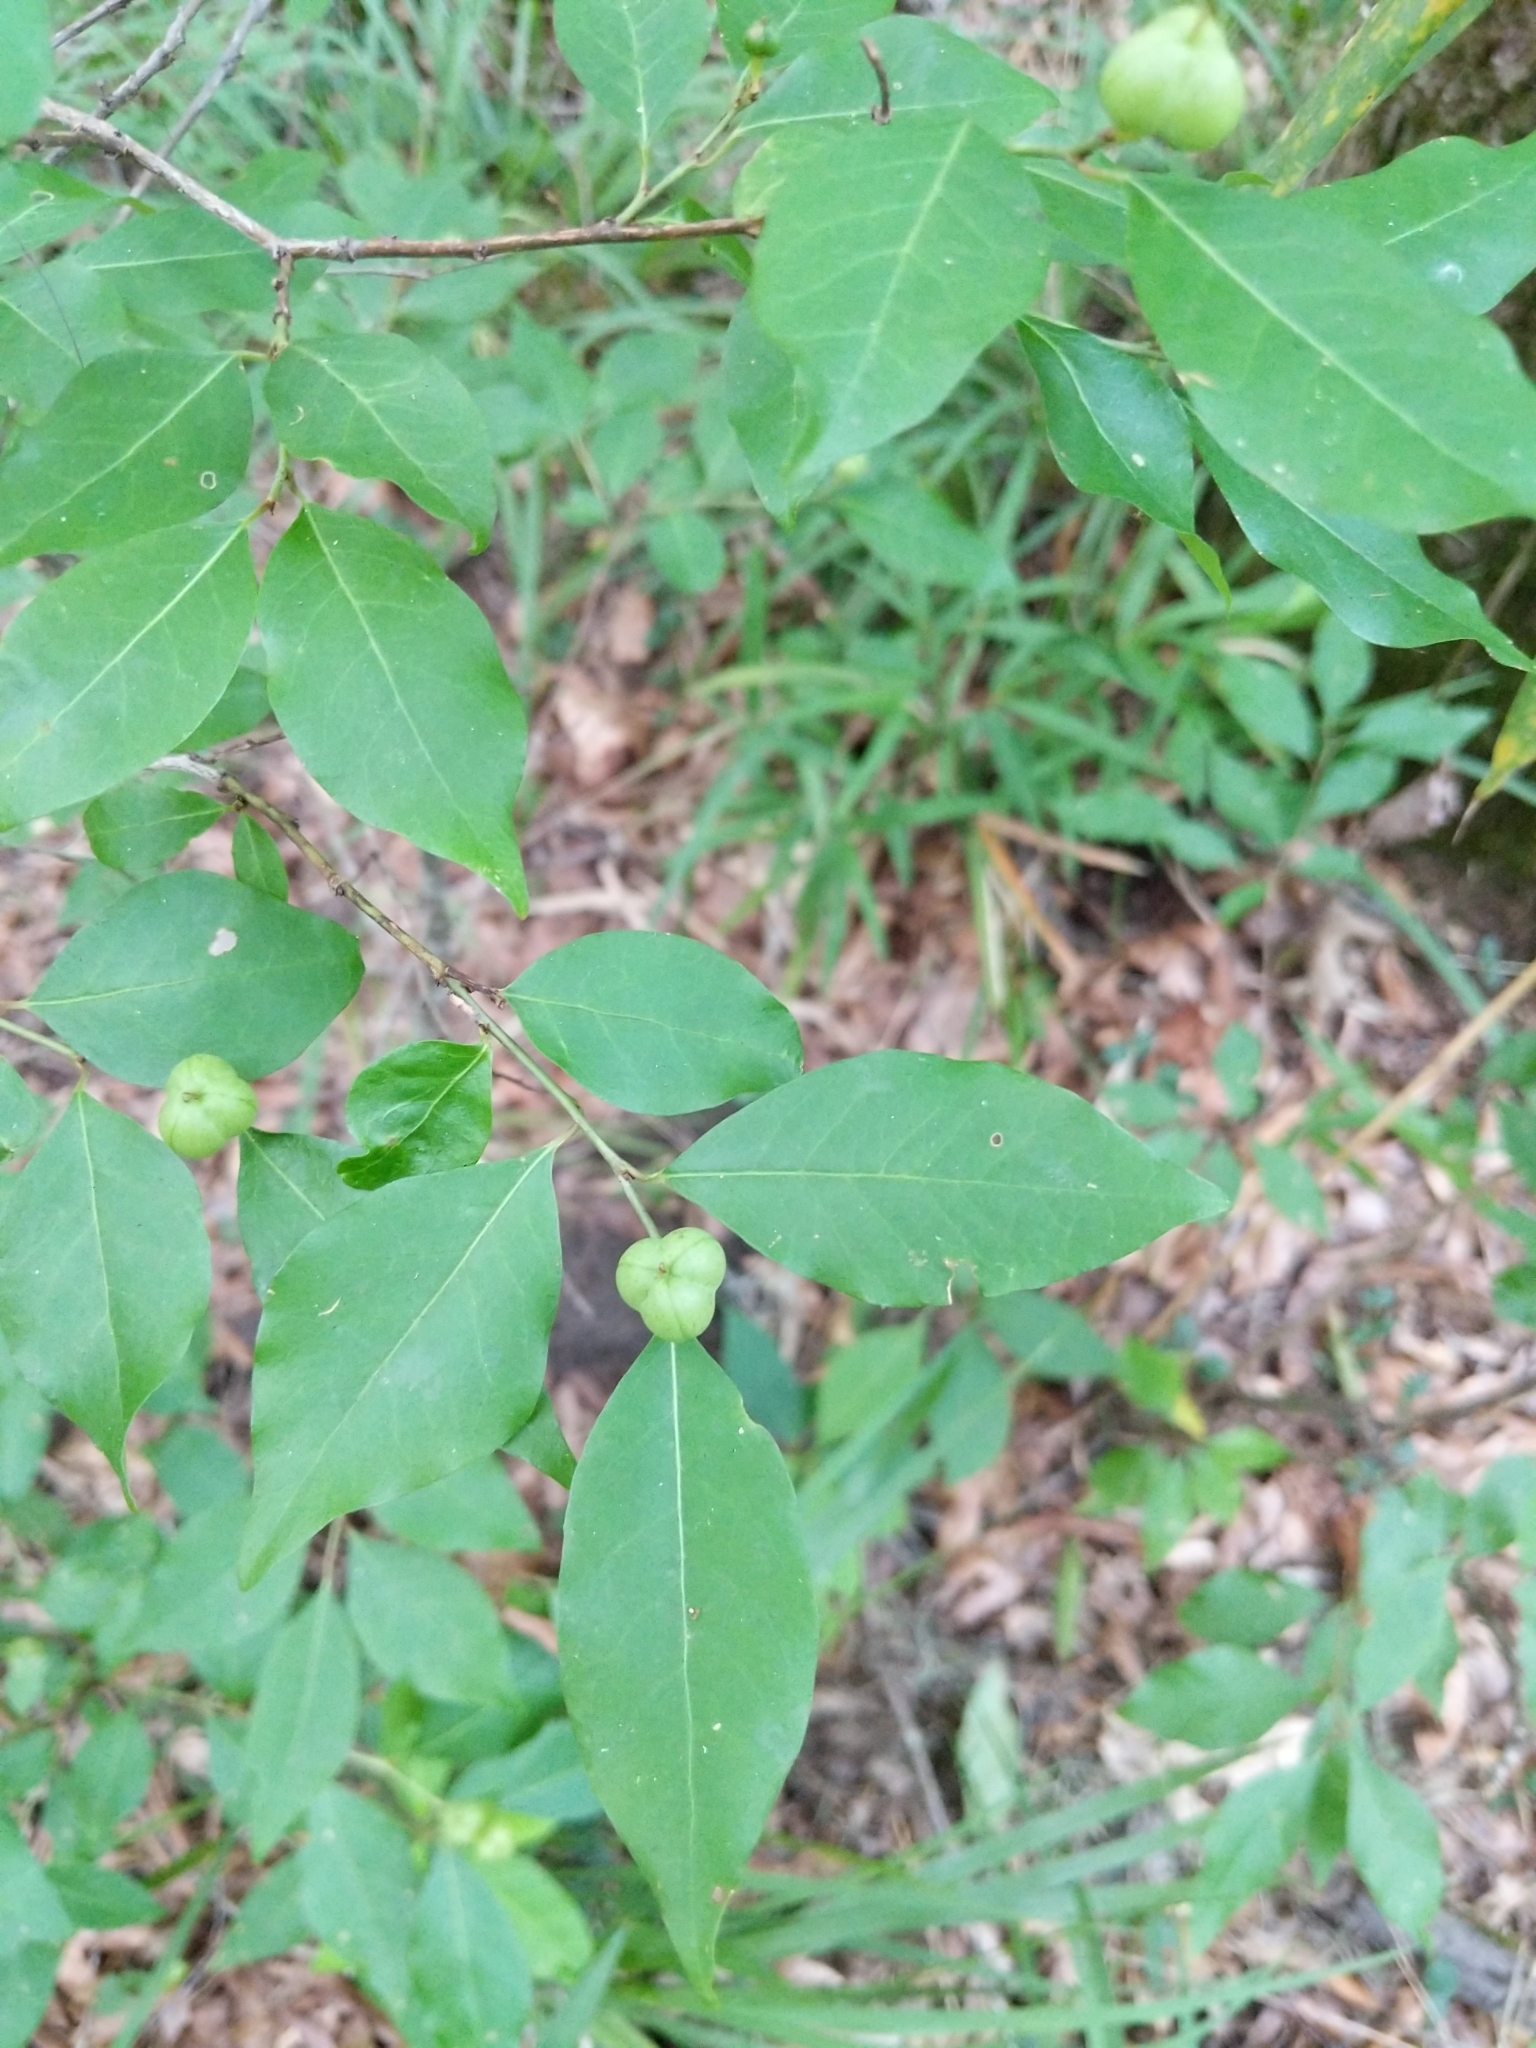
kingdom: Plantae
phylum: Tracheophyta
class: Magnoliopsida
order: Malpighiales
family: Euphorbiaceae
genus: Ditrysinia
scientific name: Ditrysinia fruticosa
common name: Gulf sebastian-bush
